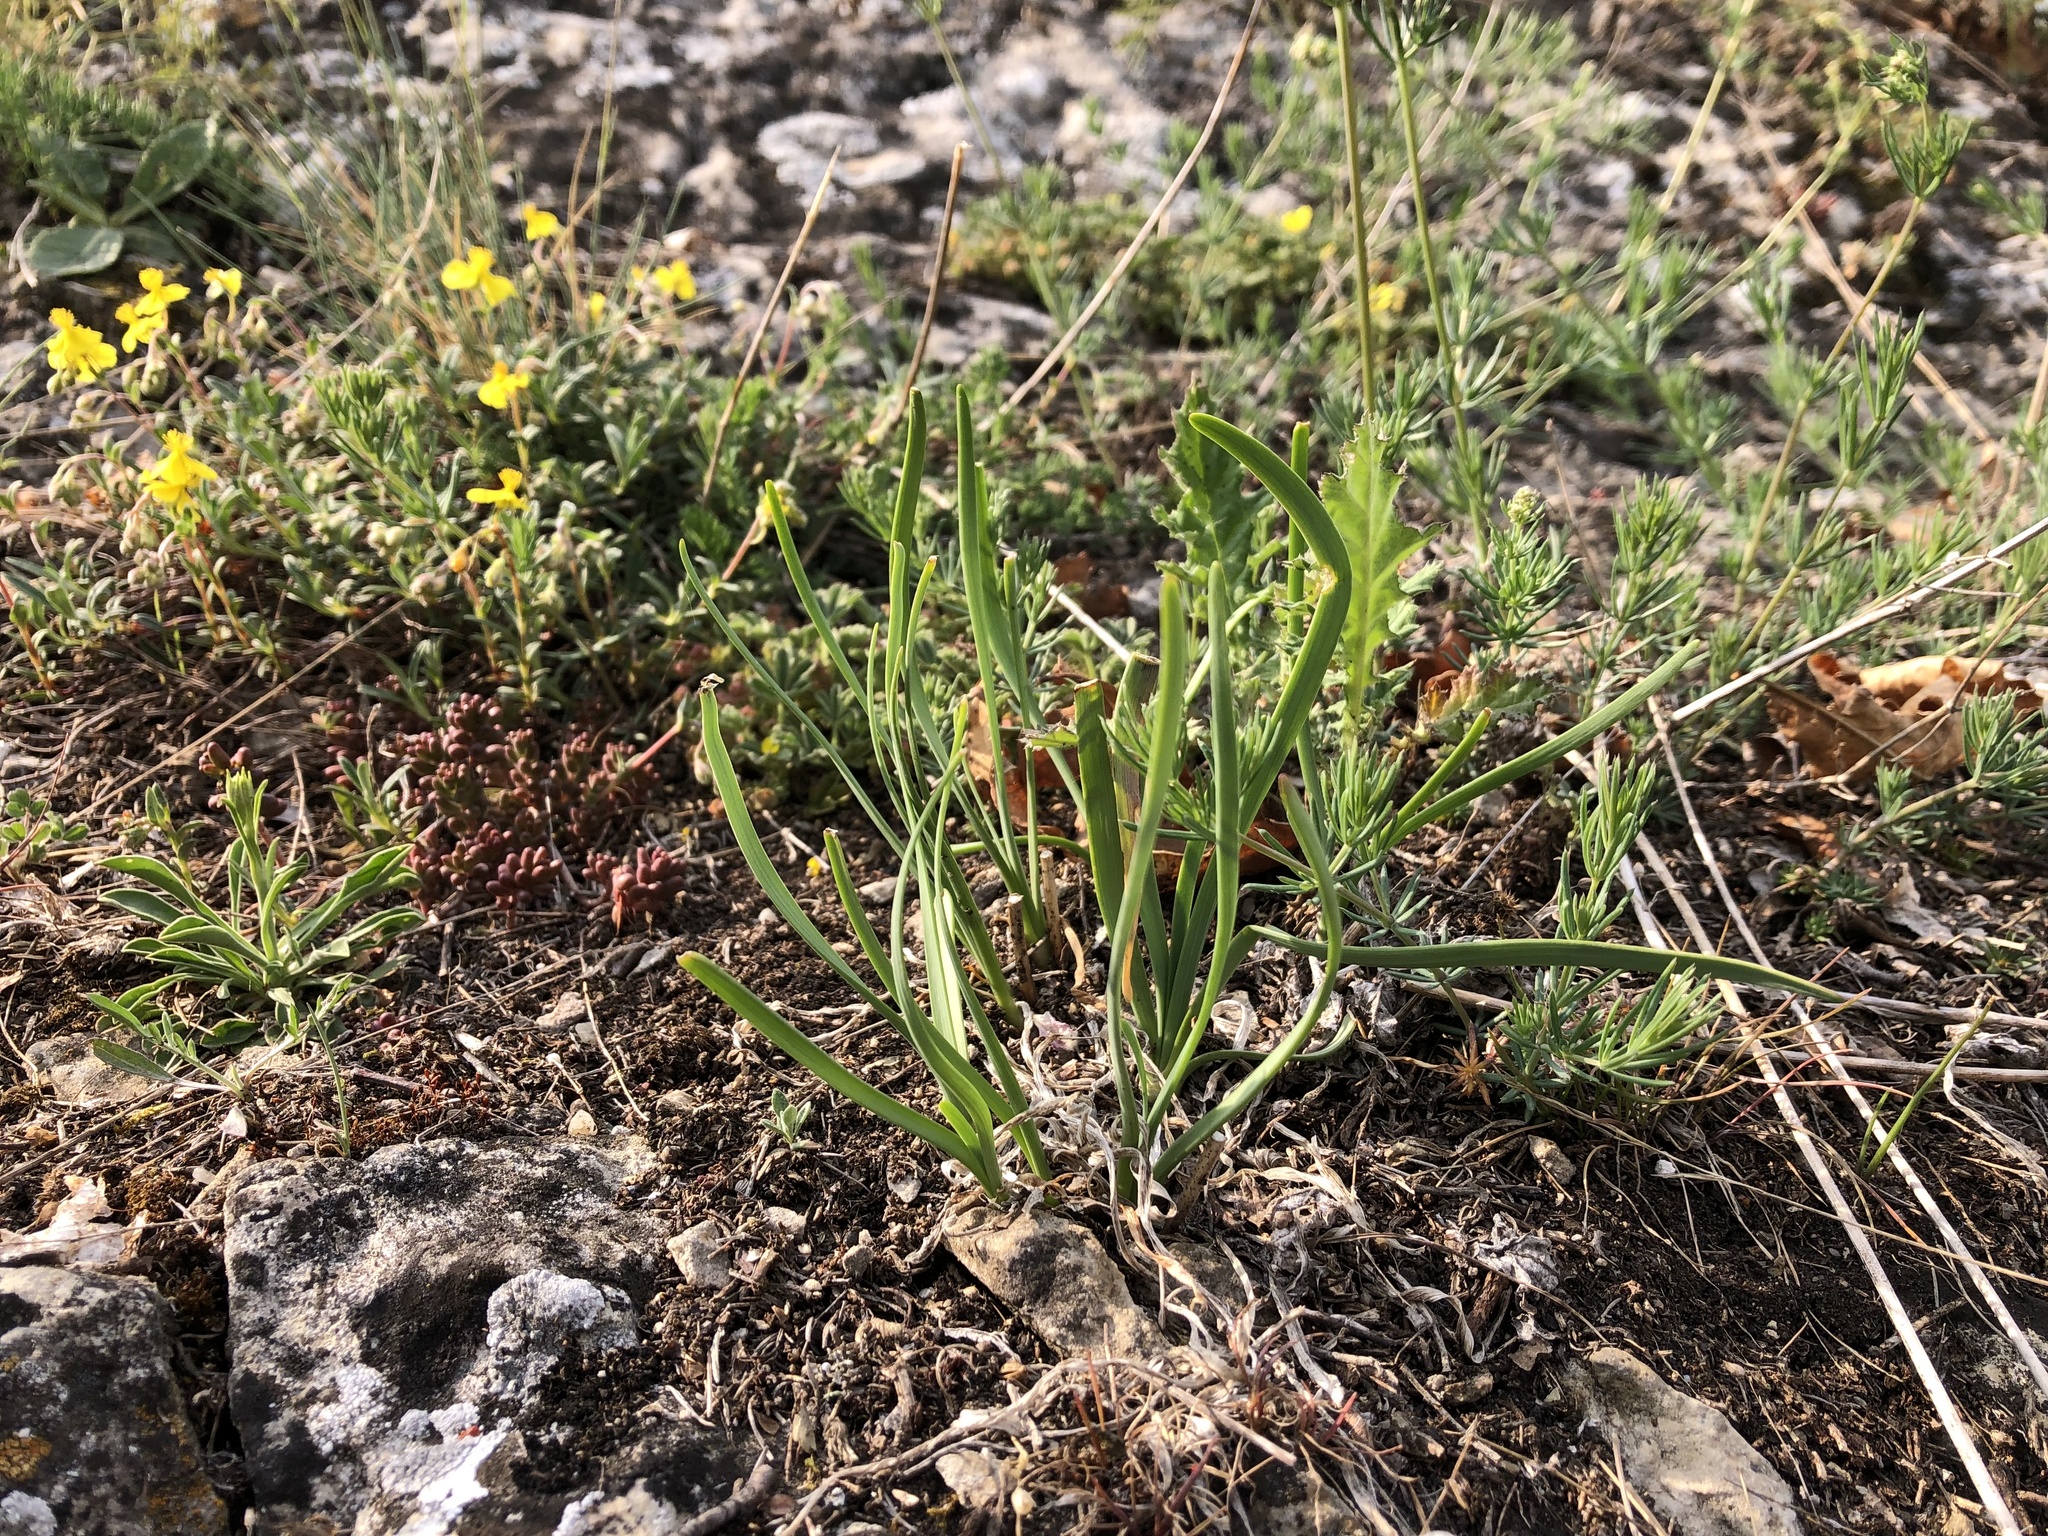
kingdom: Plantae
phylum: Tracheophyta
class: Liliopsida
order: Asparagales
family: Amaryllidaceae
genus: Allium
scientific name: Allium lusitanicum
